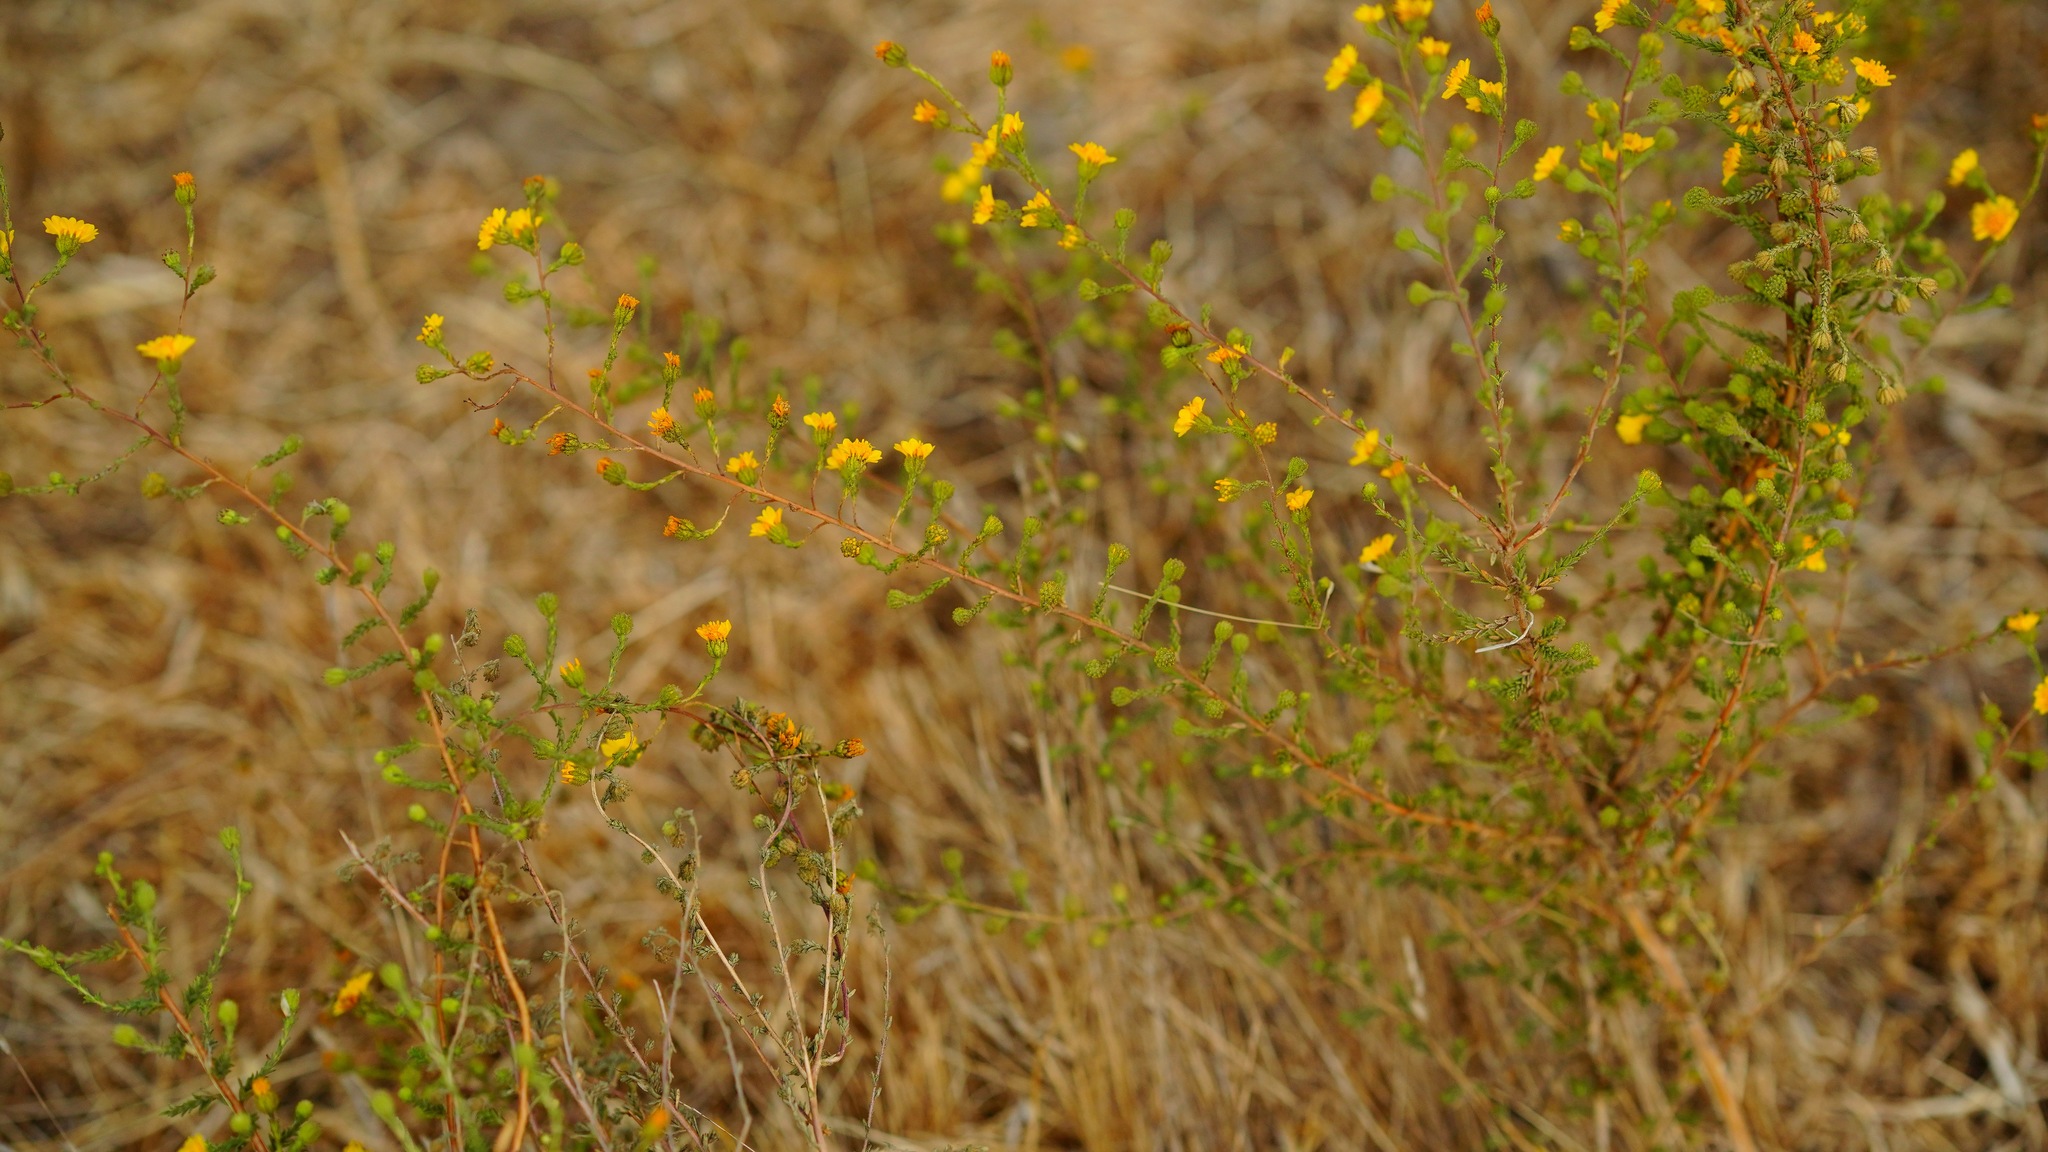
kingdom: Plantae
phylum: Tracheophyta
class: Magnoliopsida
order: Asterales
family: Asteraceae
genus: Holocarpha
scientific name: Holocarpha heermannii
